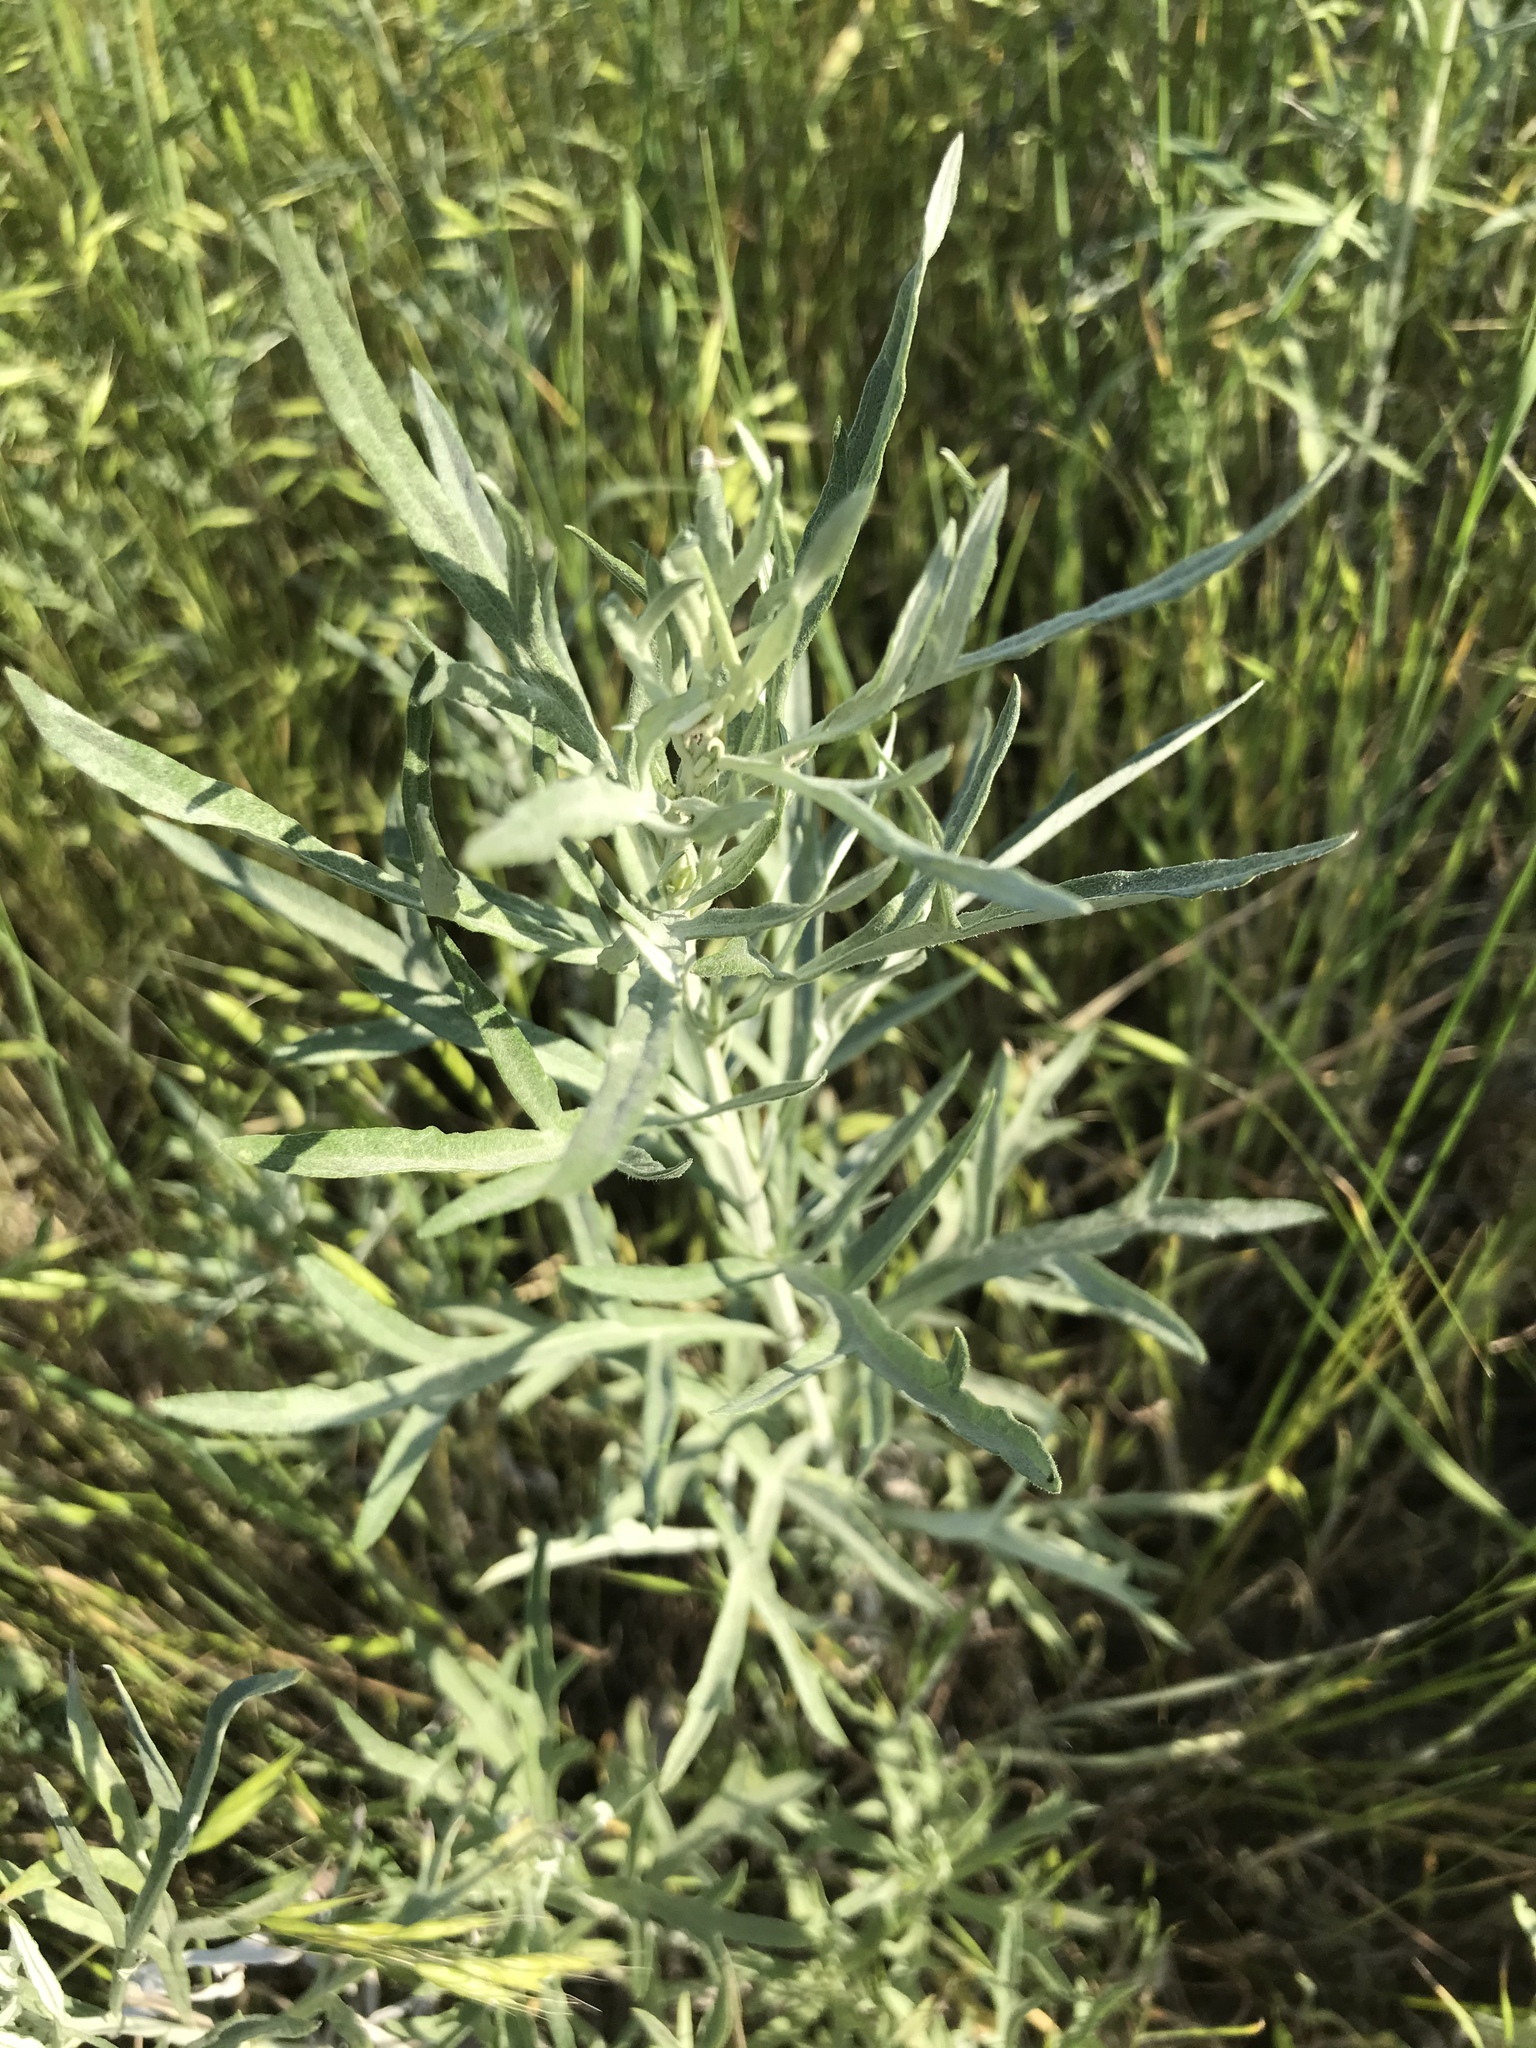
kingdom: Plantae
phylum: Tracheophyta
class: Magnoliopsida
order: Asterales
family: Asteraceae
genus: Artemisia
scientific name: Artemisia ludoviciana
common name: Western mugwort
